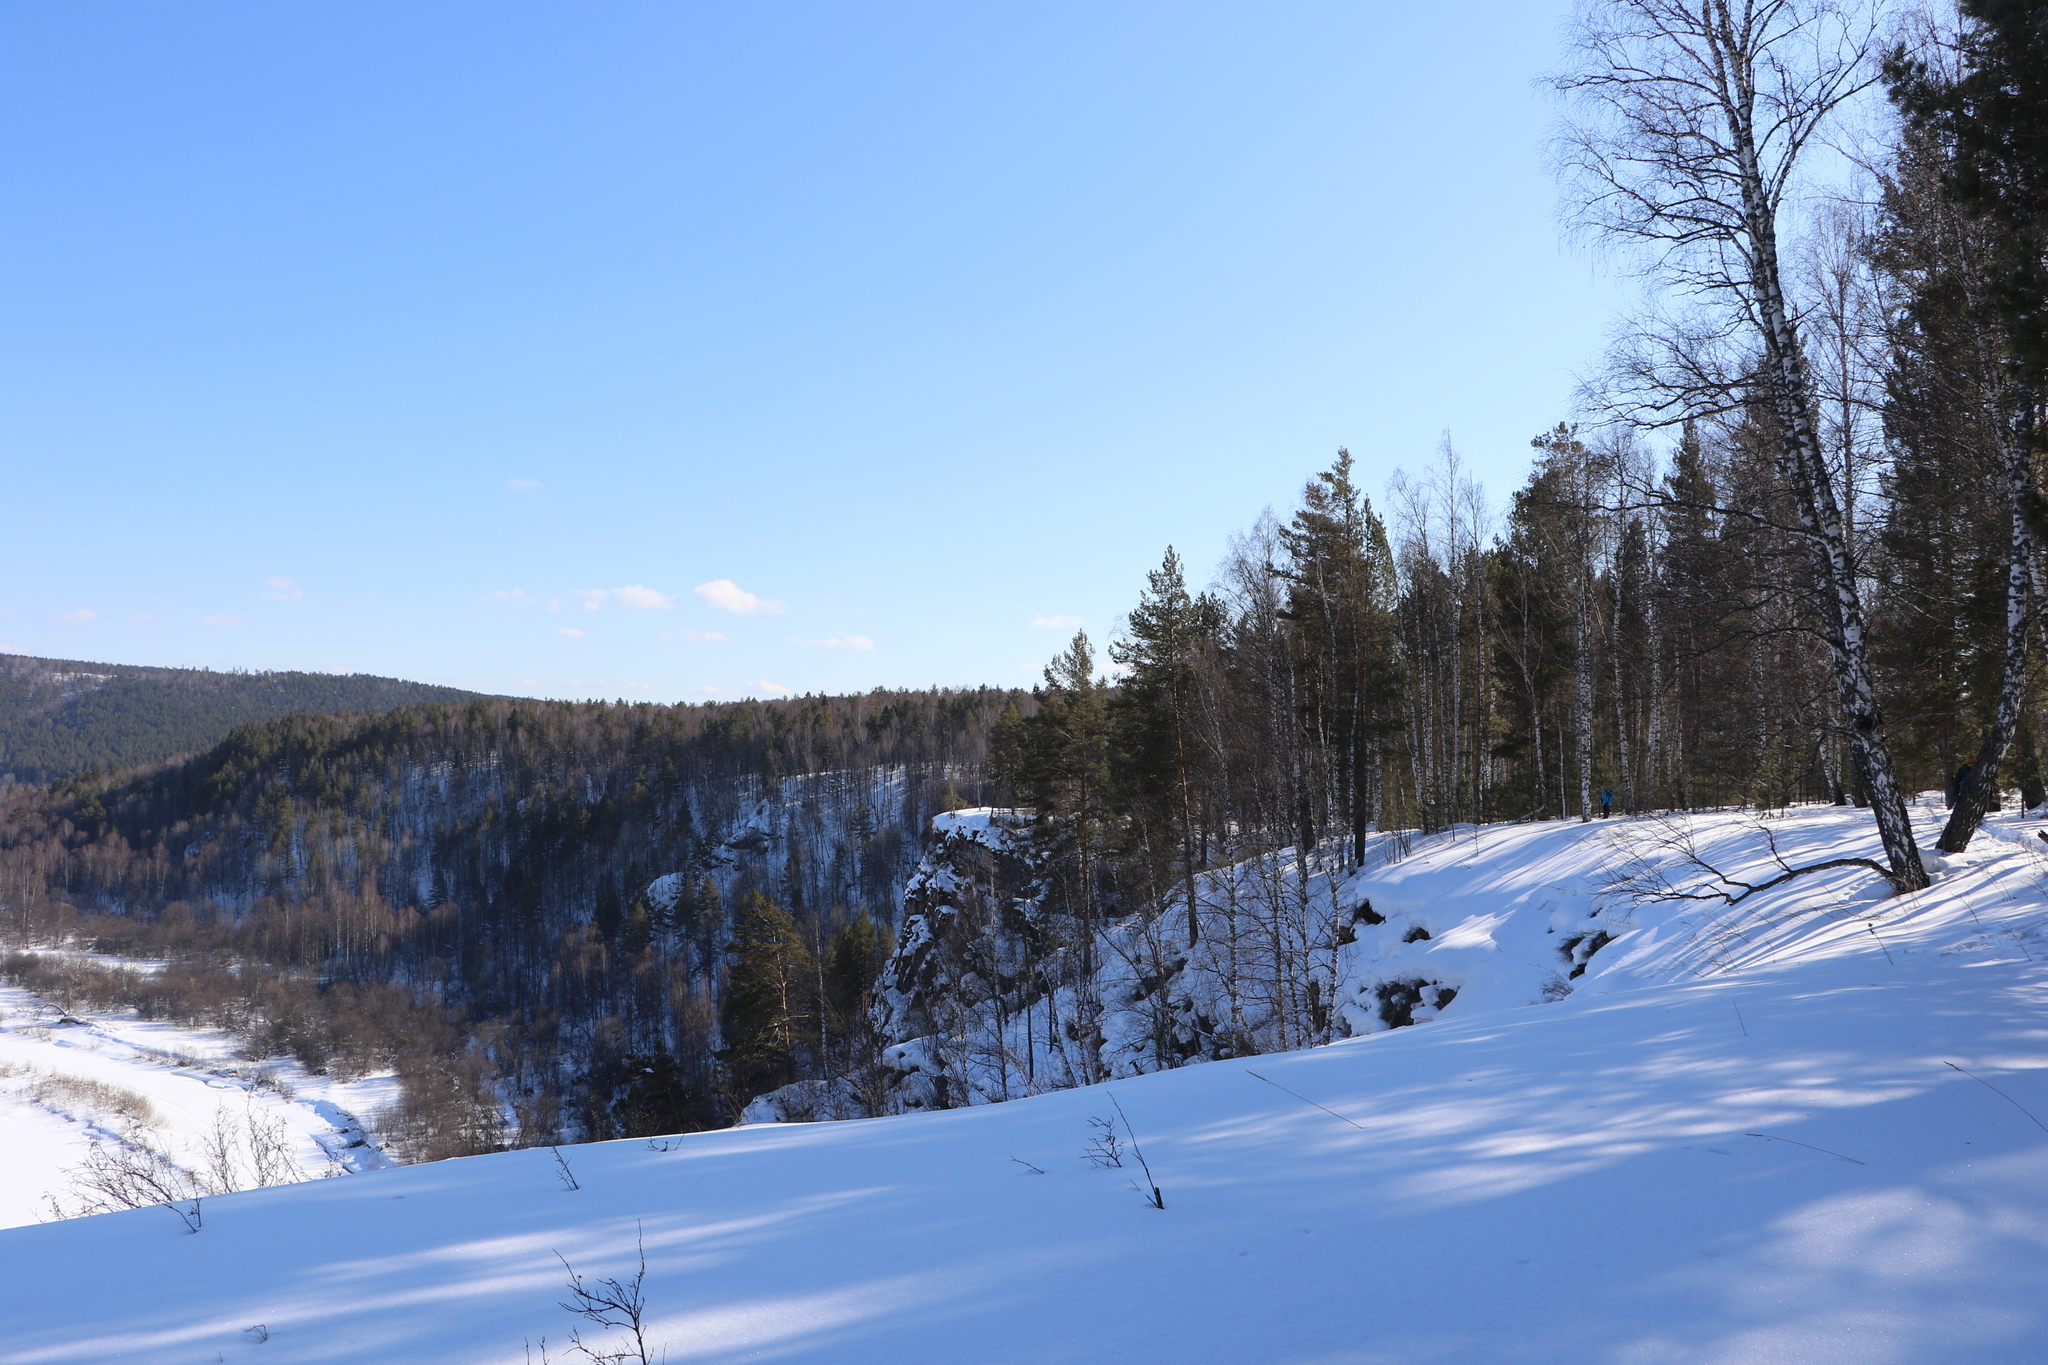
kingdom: Plantae
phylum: Tracheophyta
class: Magnoliopsida
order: Fagales
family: Betulaceae
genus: Betula
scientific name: Betula pendula
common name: Silver birch
